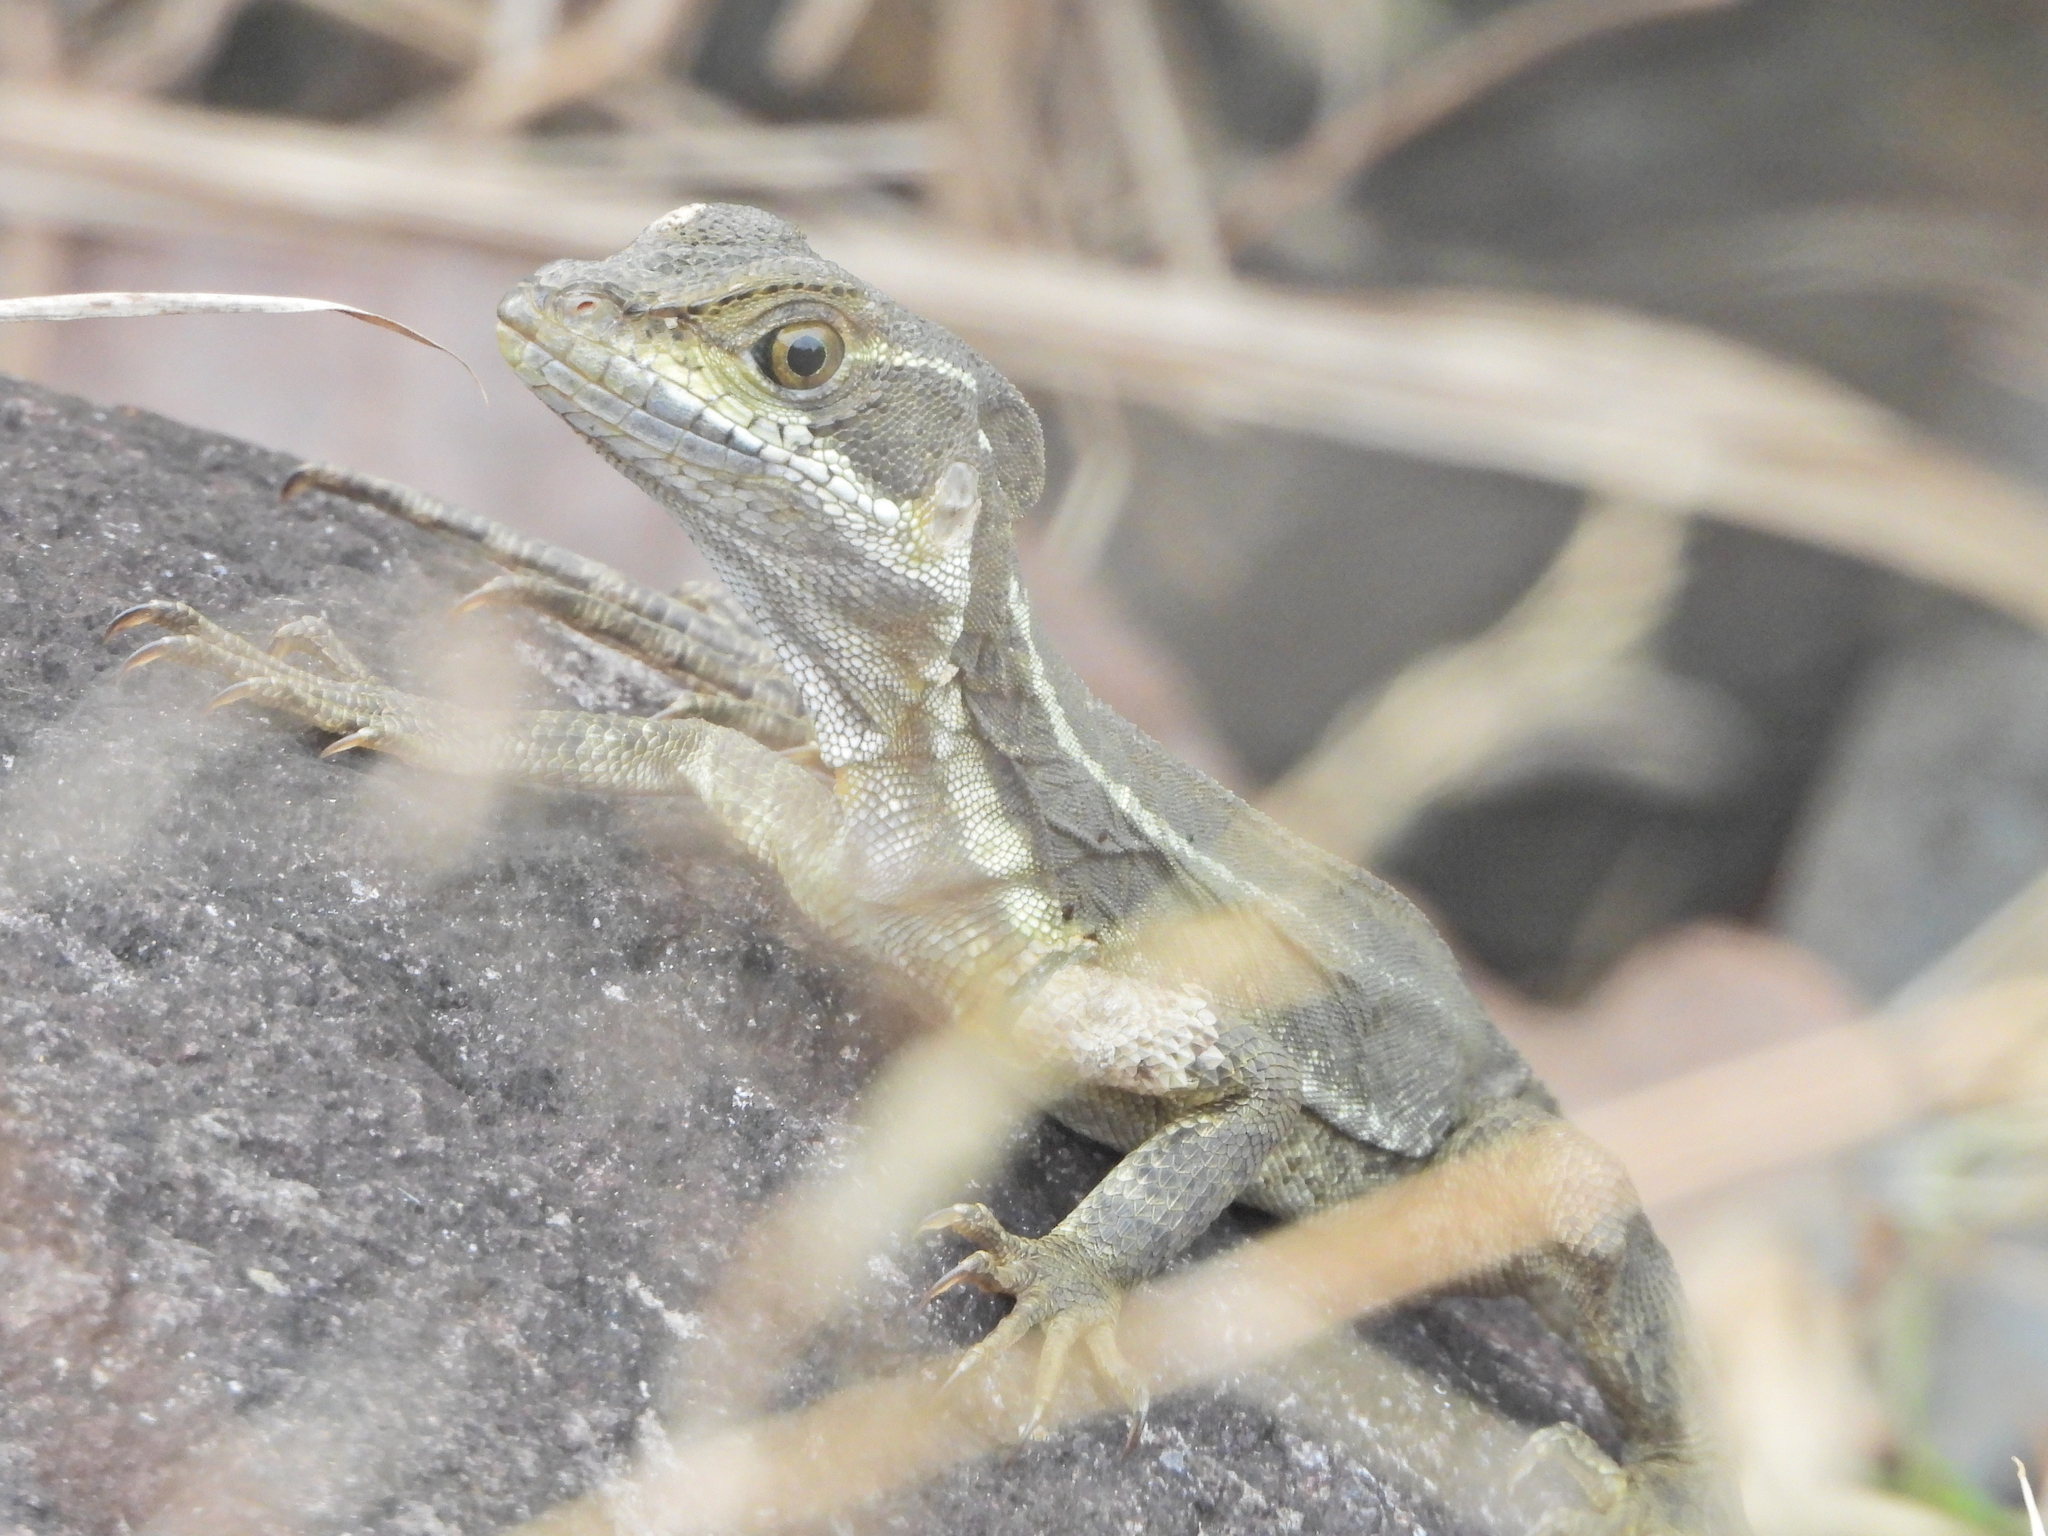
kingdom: Animalia
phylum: Chordata
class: Squamata
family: Corytophanidae
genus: Basiliscus
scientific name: Basiliscus basiliscus
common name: Common basilisk
